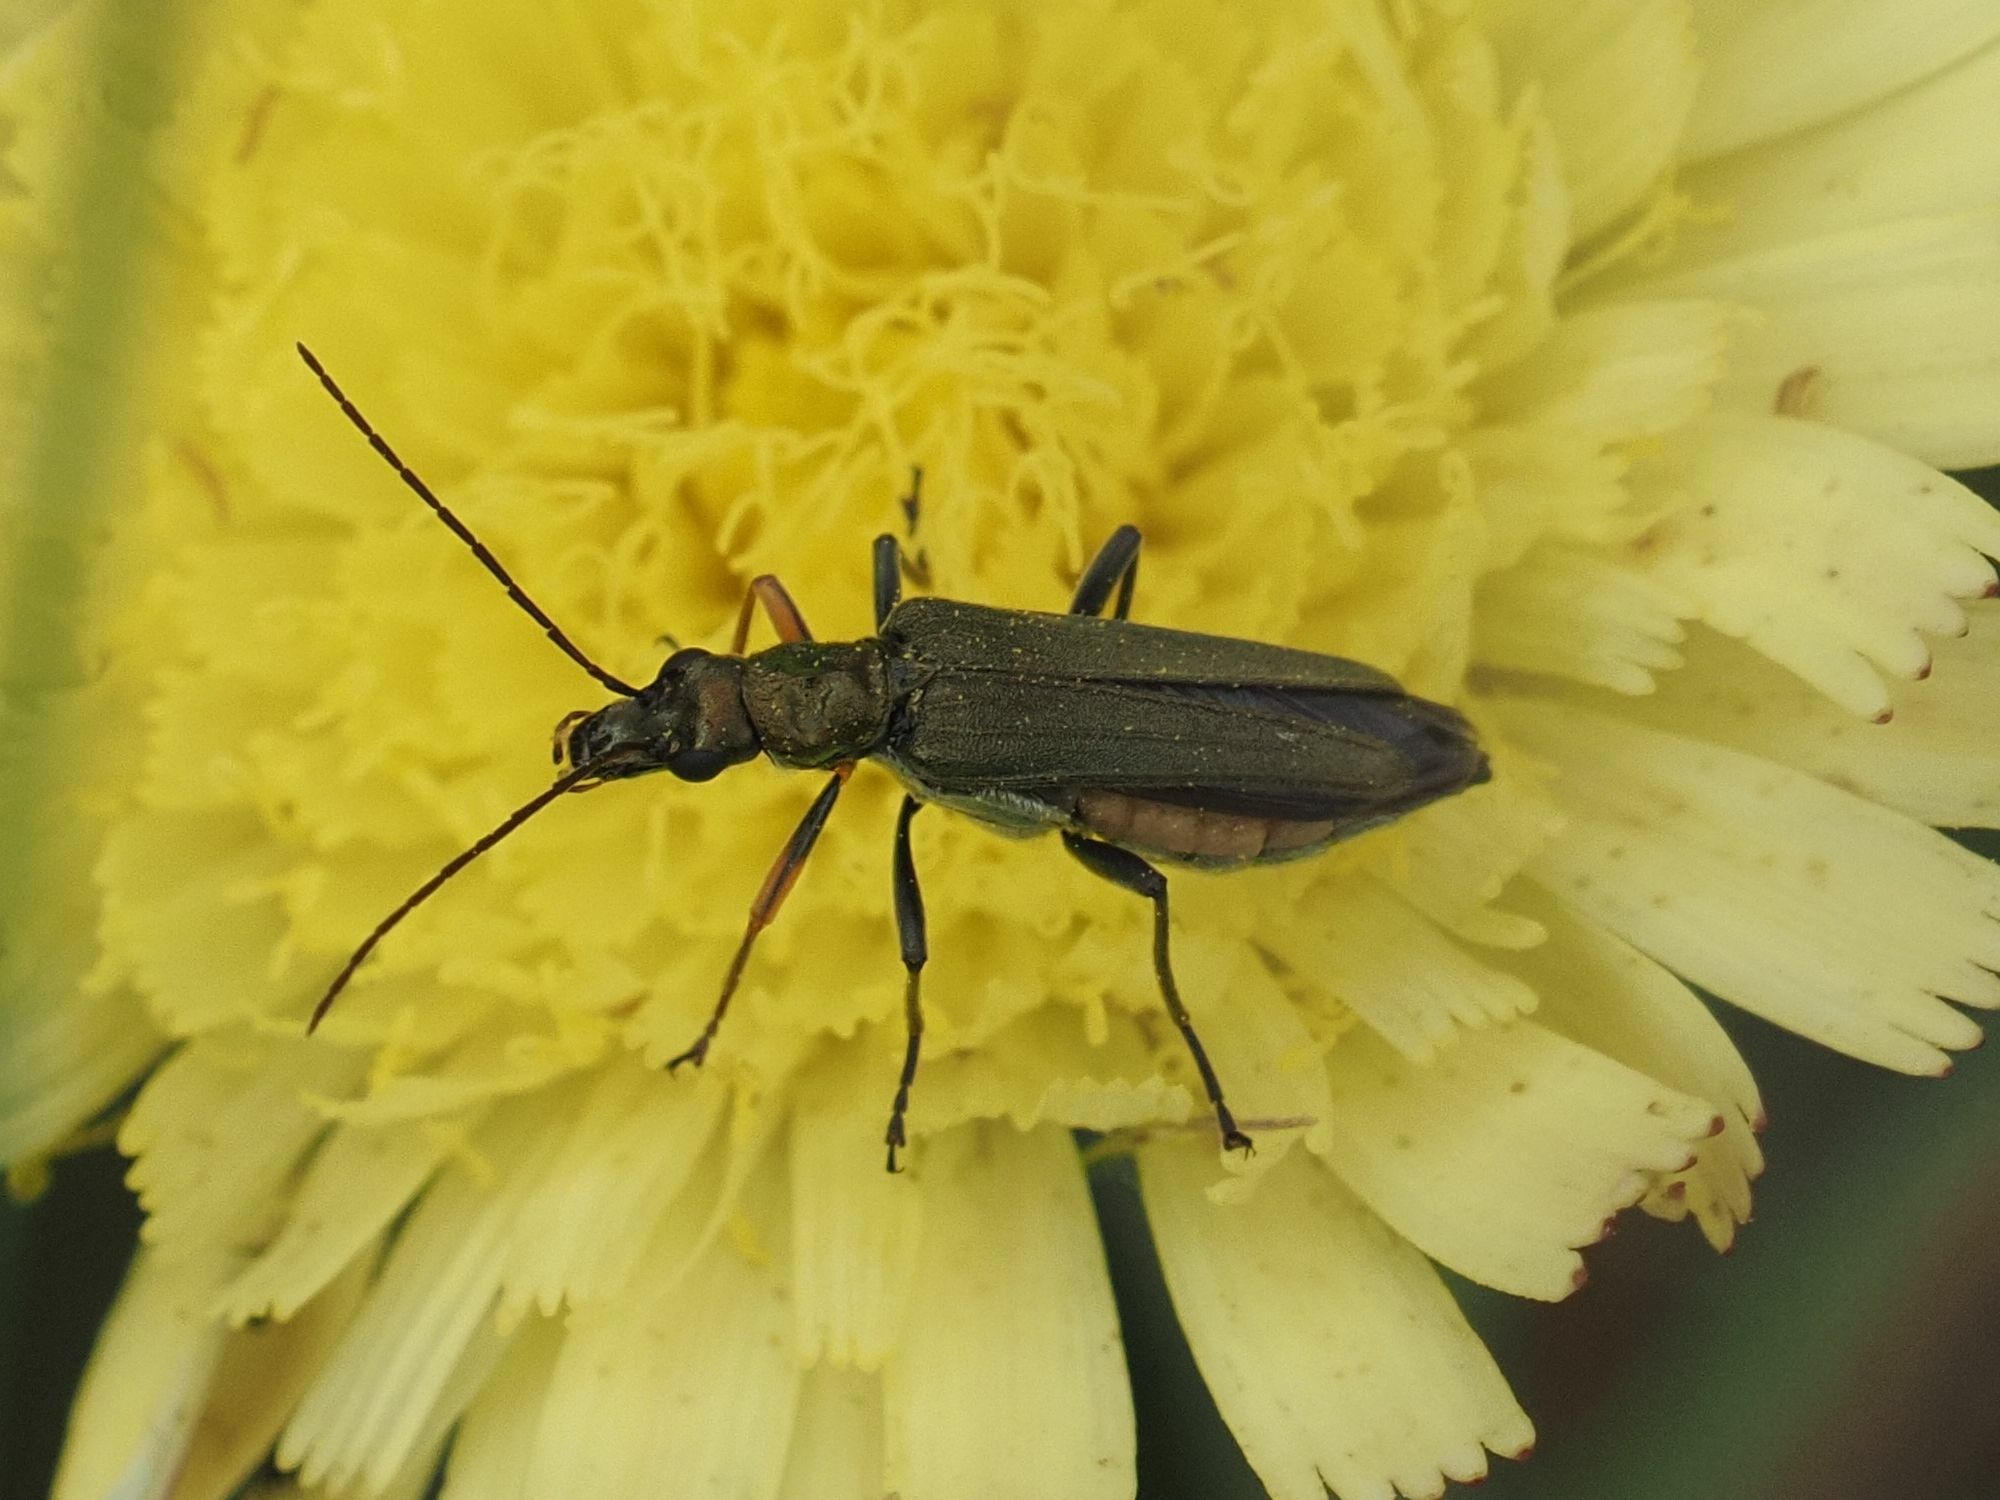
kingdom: Animalia
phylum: Arthropoda
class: Insecta
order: Coleoptera
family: Oedemeridae
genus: Oedemera
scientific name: Oedemera flavipes
